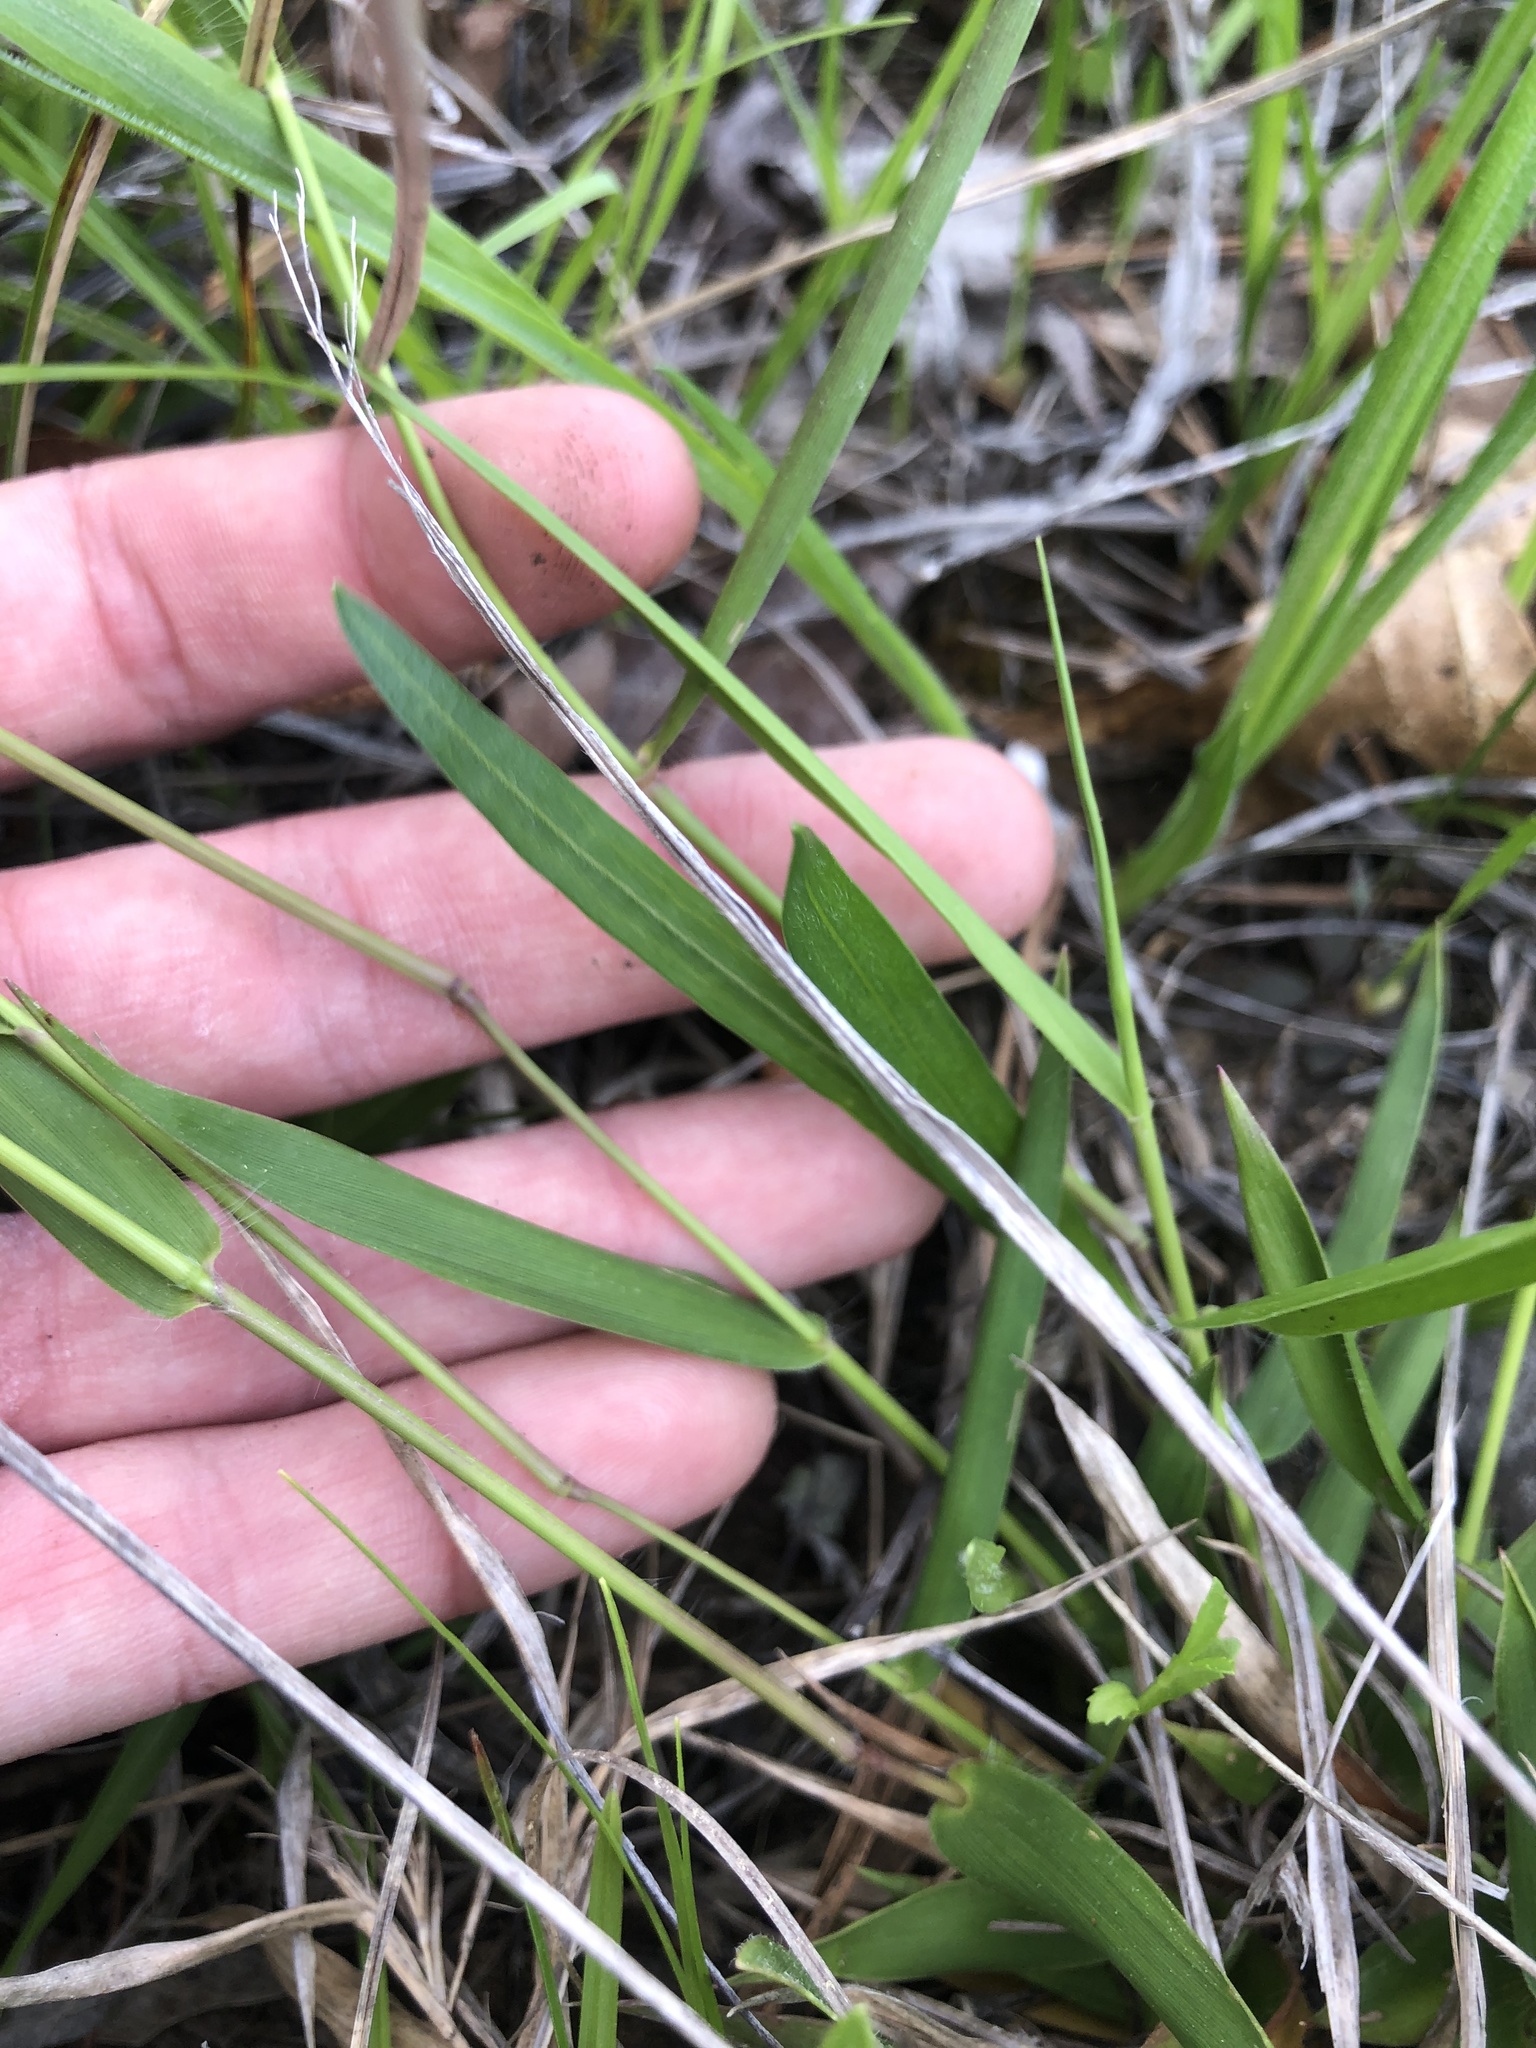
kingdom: Plantae
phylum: Tracheophyta
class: Liliopsida
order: Poales
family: Poaceae
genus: Dichanthelium
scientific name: Dichanthelium depauperatum
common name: Depauperate panicgrass
